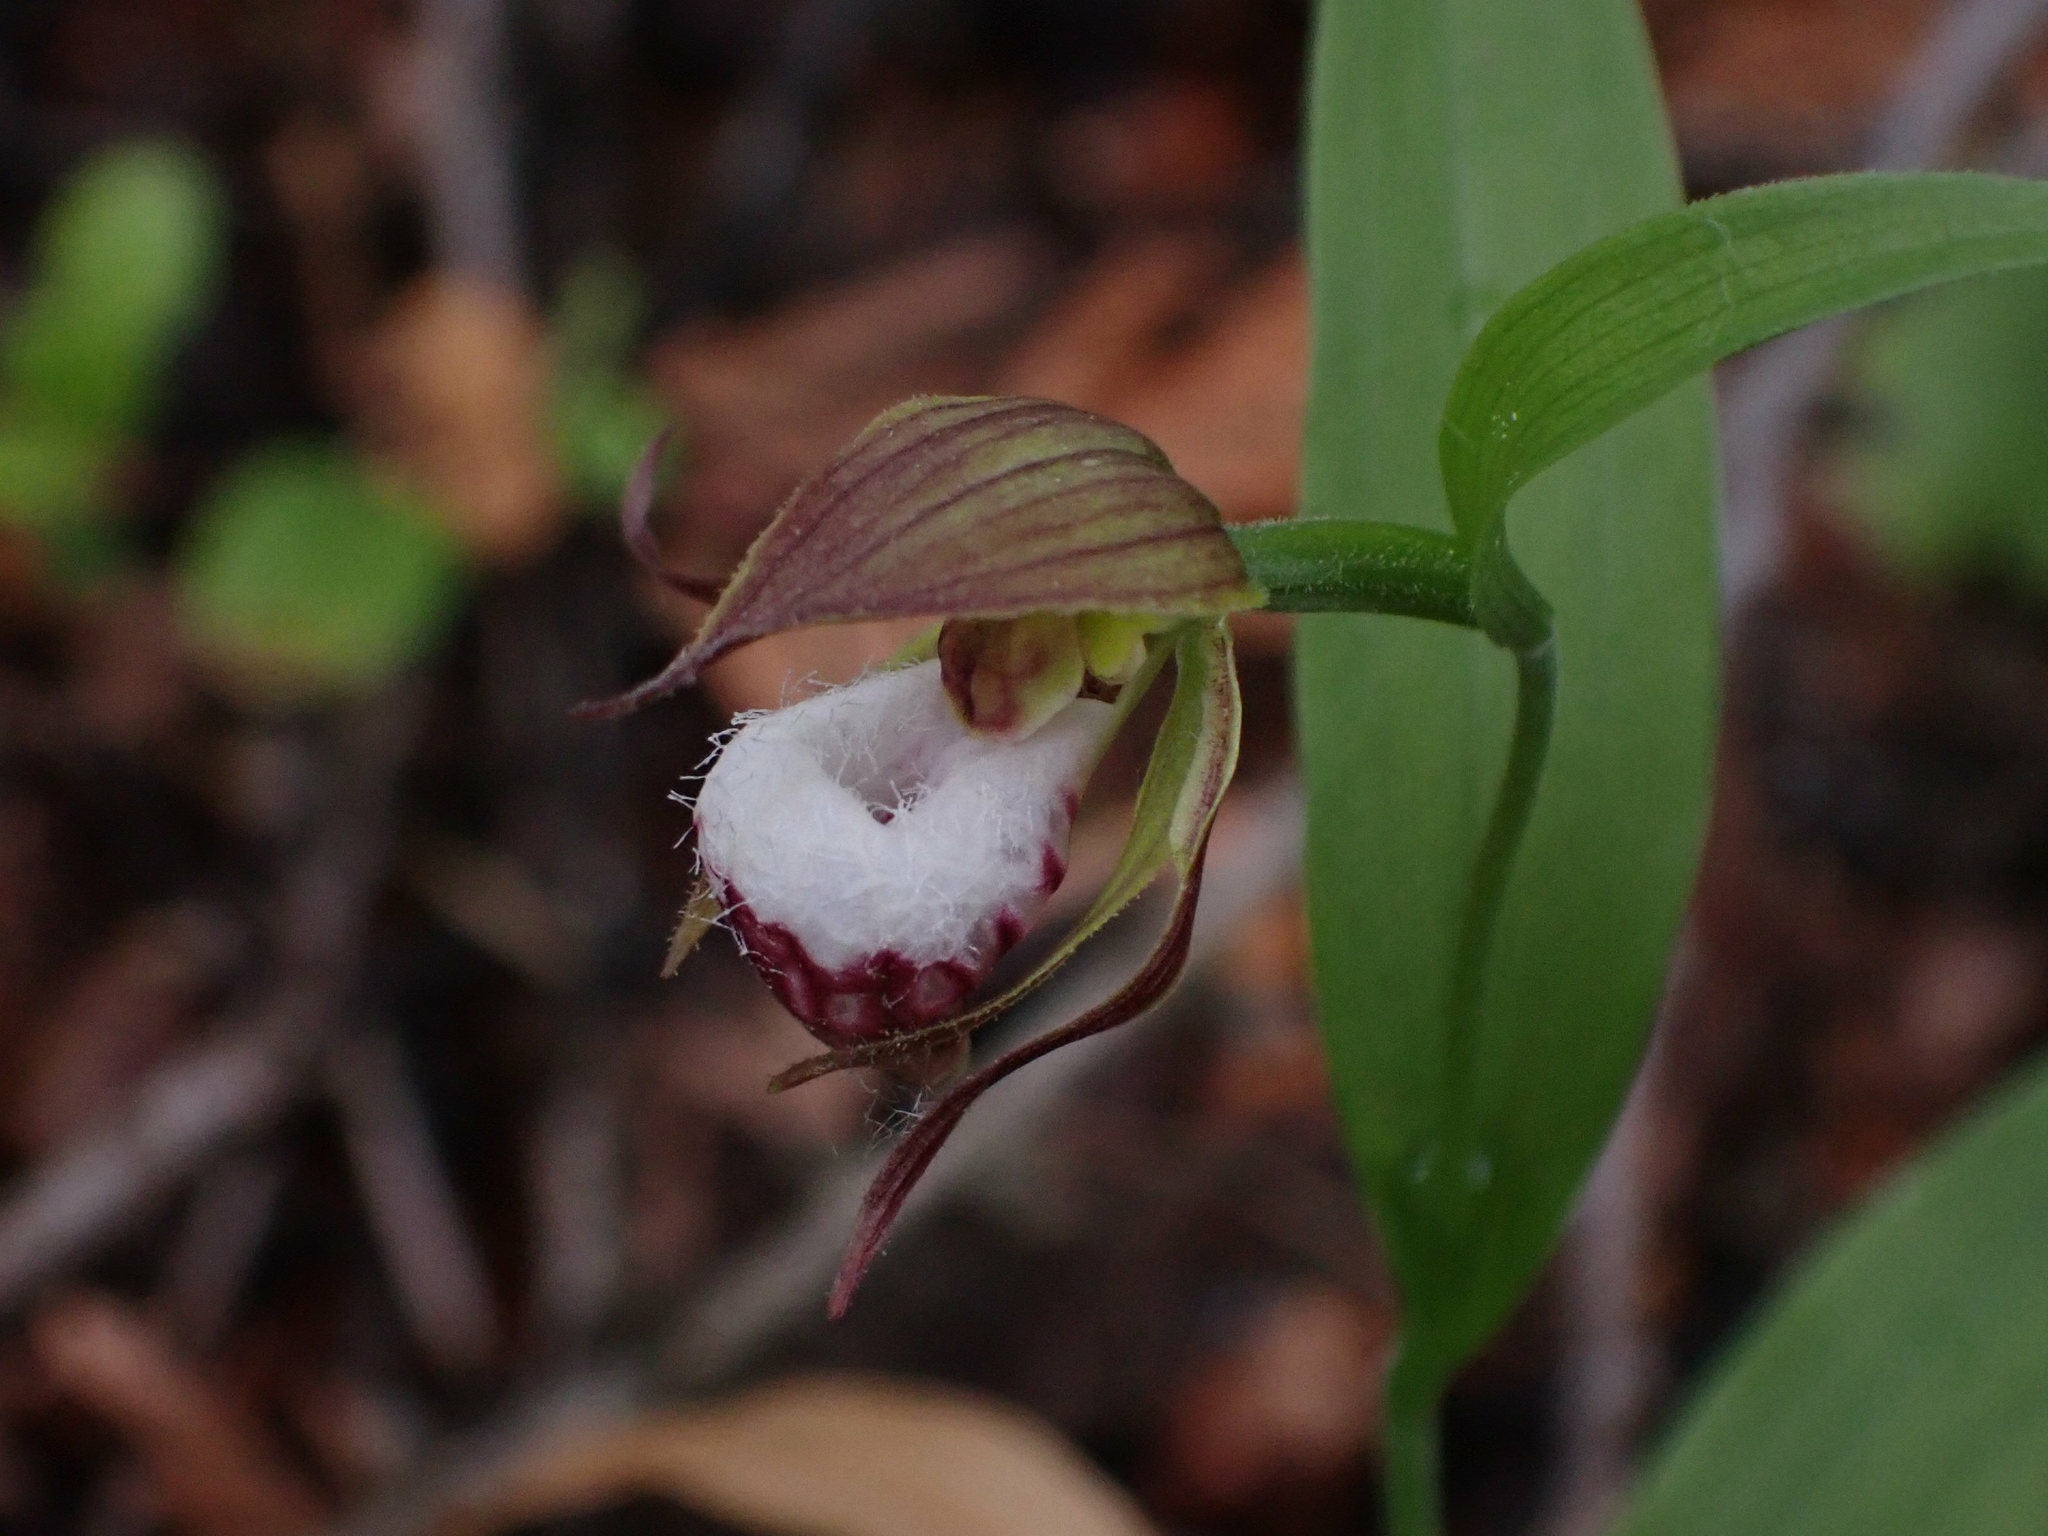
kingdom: Plantae
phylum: Tracheophyta
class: Liliopsida
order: Asparagales
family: Orchidaceae
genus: Cypripedium
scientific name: Cypripedium arietinum
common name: Ram's-head
